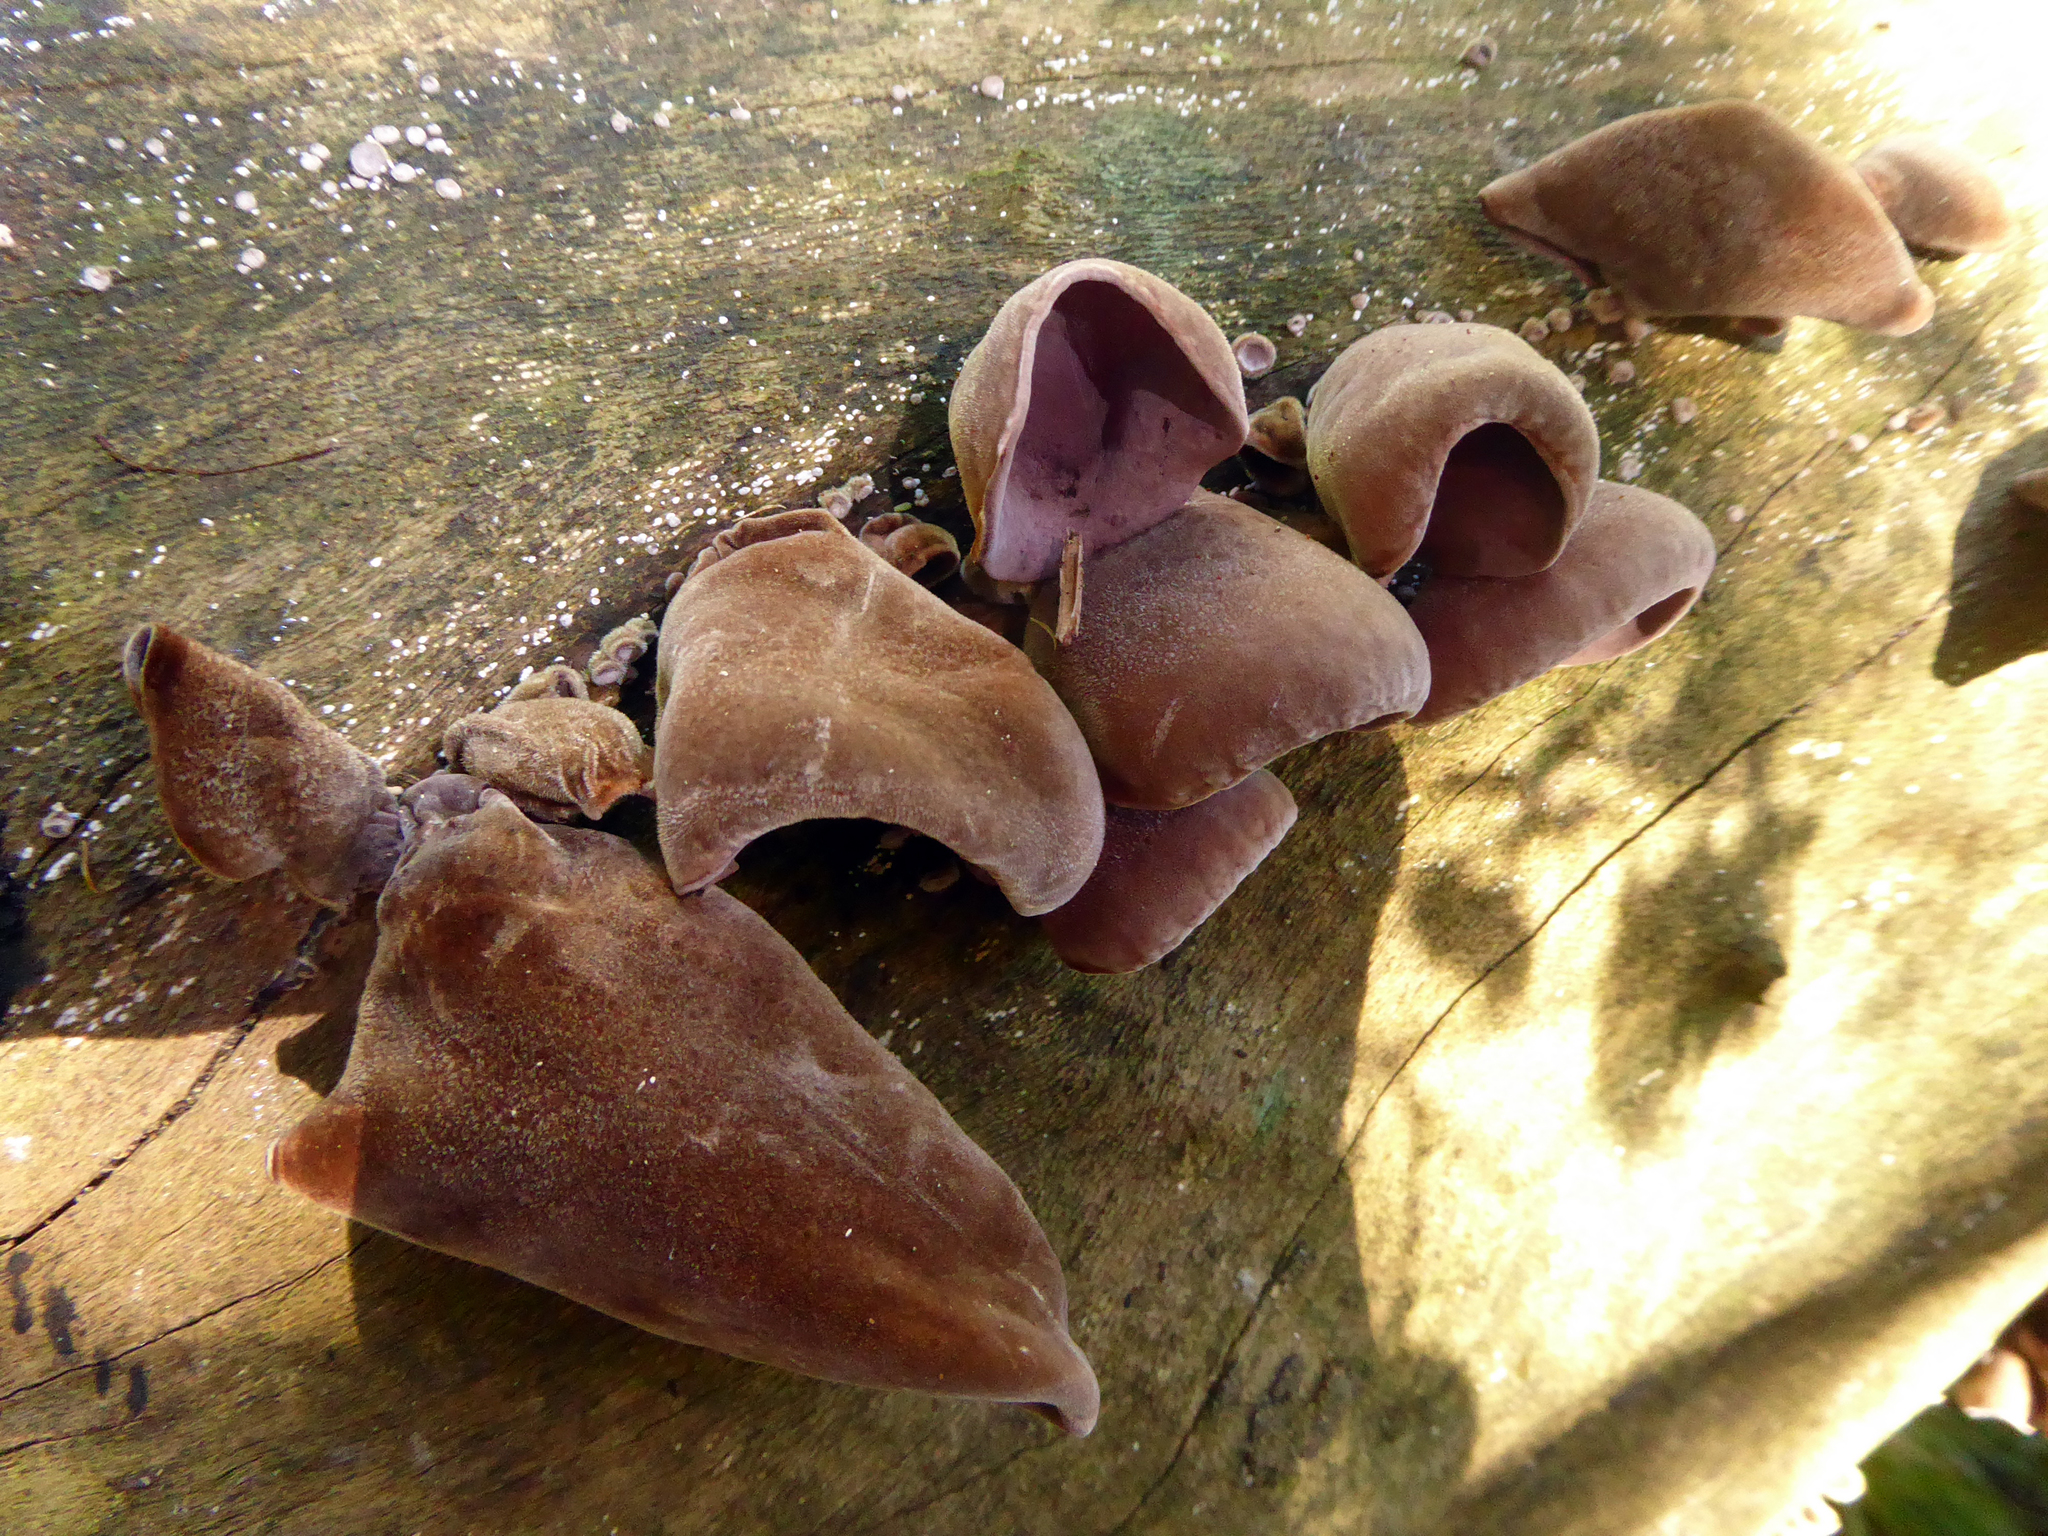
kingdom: Fungi
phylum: Basidiomycota
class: Agaricomycetes
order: Auriculariales
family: Auriculariaceae
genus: Auricularia
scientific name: Auricularia cornea
